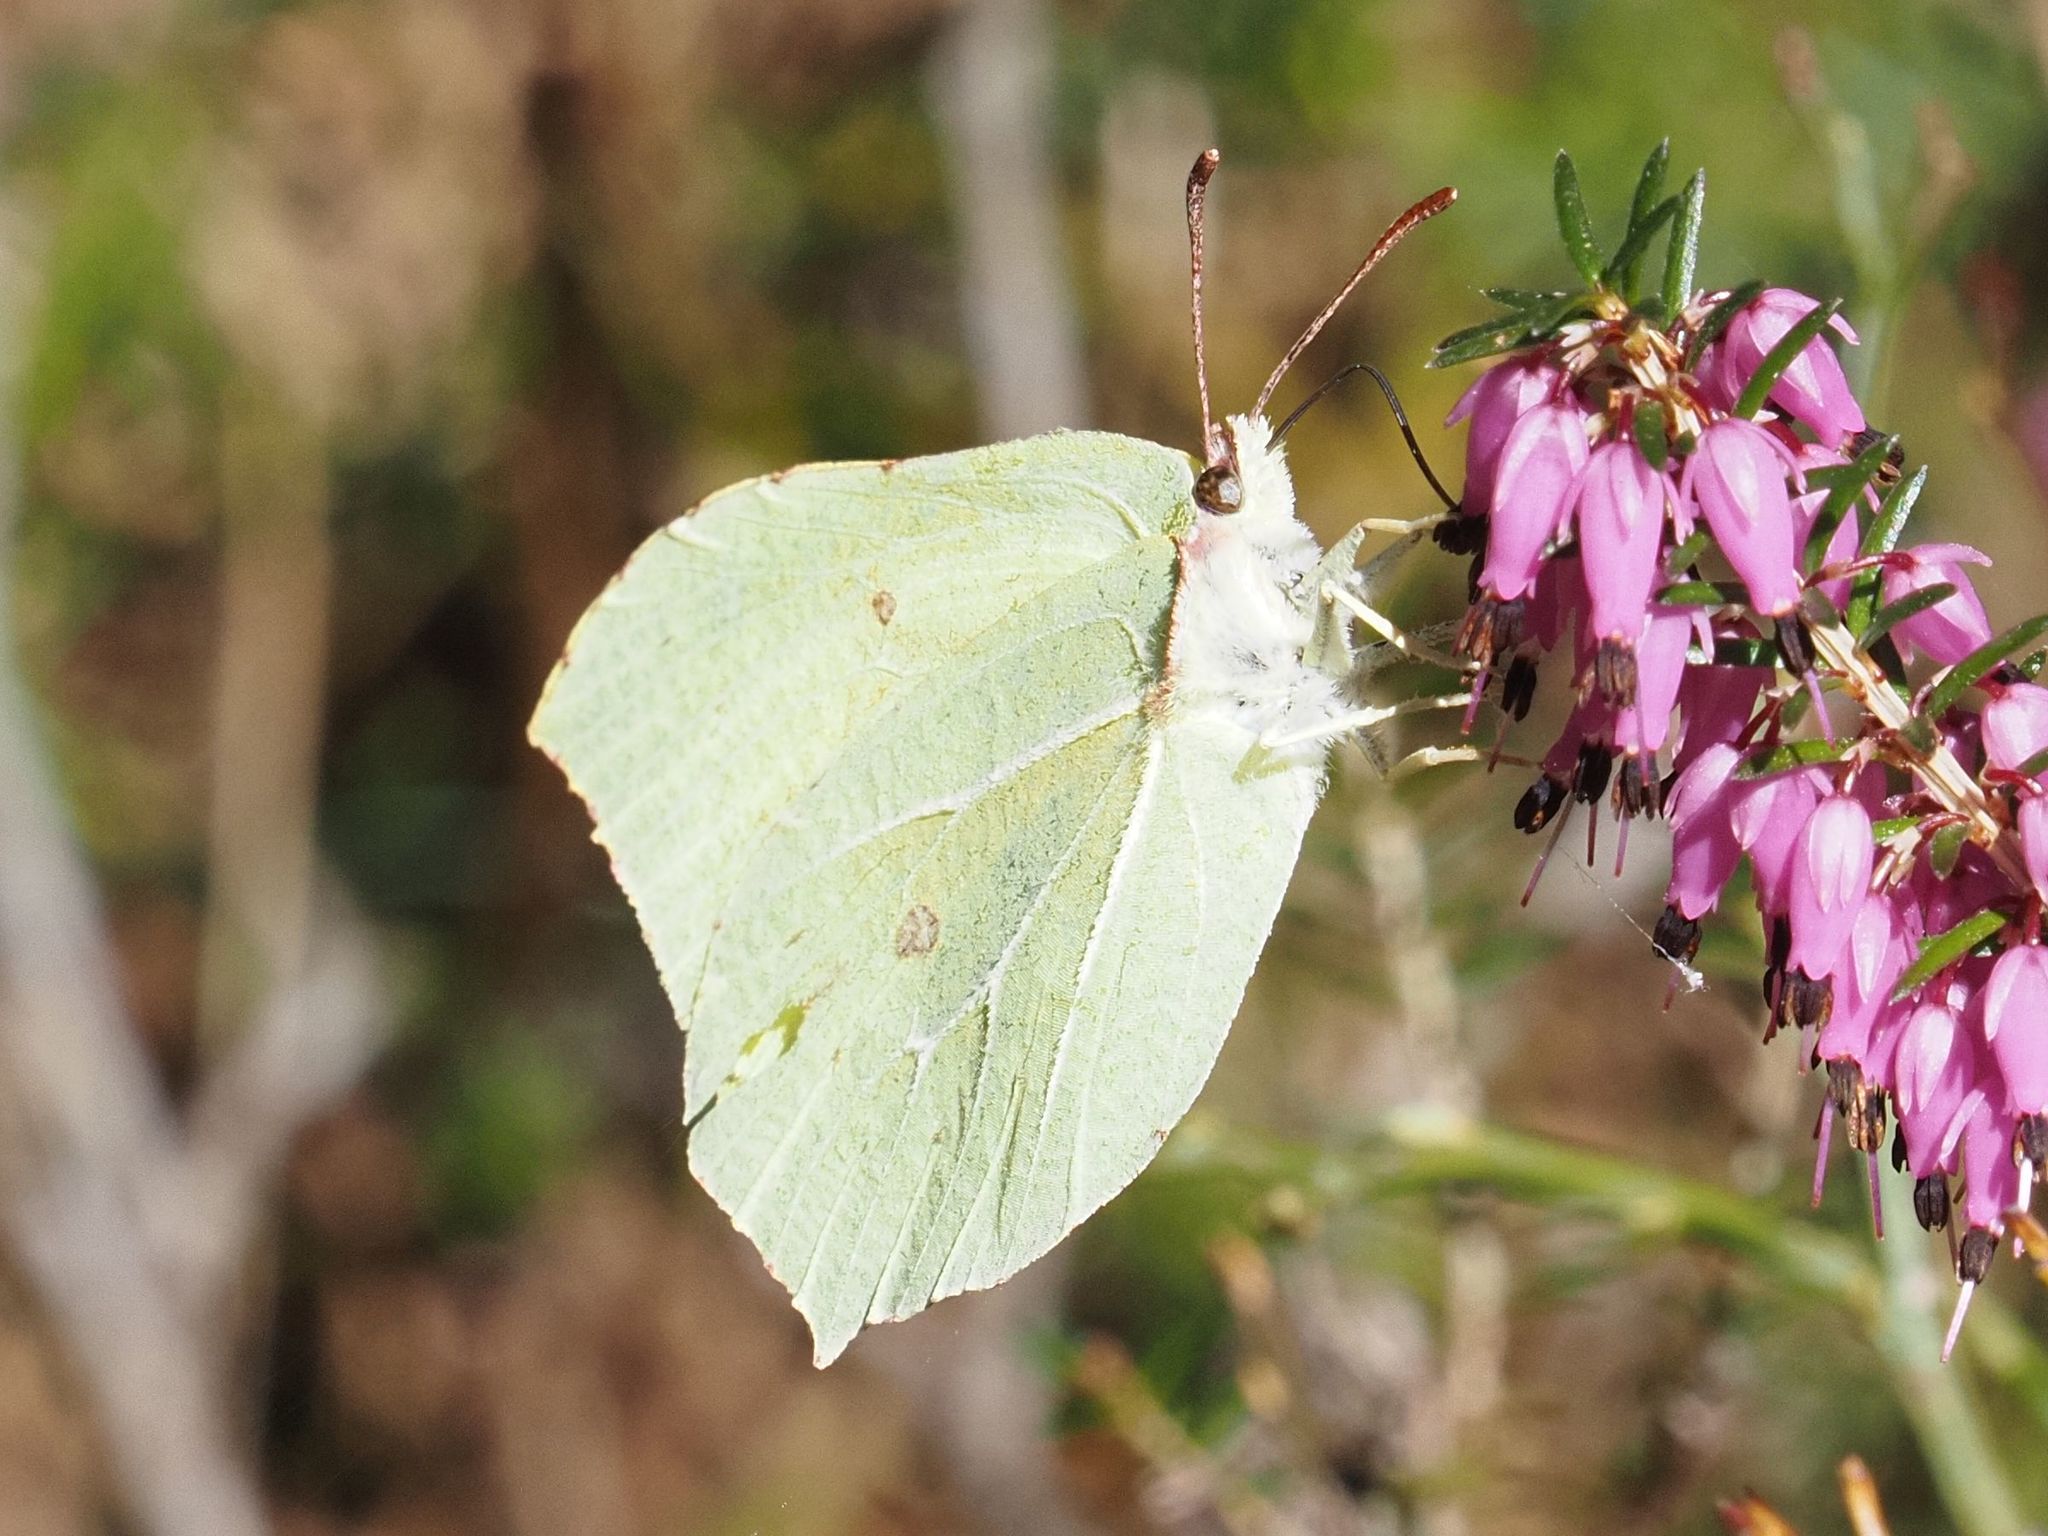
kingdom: Animalia
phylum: Arthropoda
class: Insecta
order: Lepidoptera
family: Pieridae
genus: Gonepteryx
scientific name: Gonepteryx rhamni
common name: Brimstone
